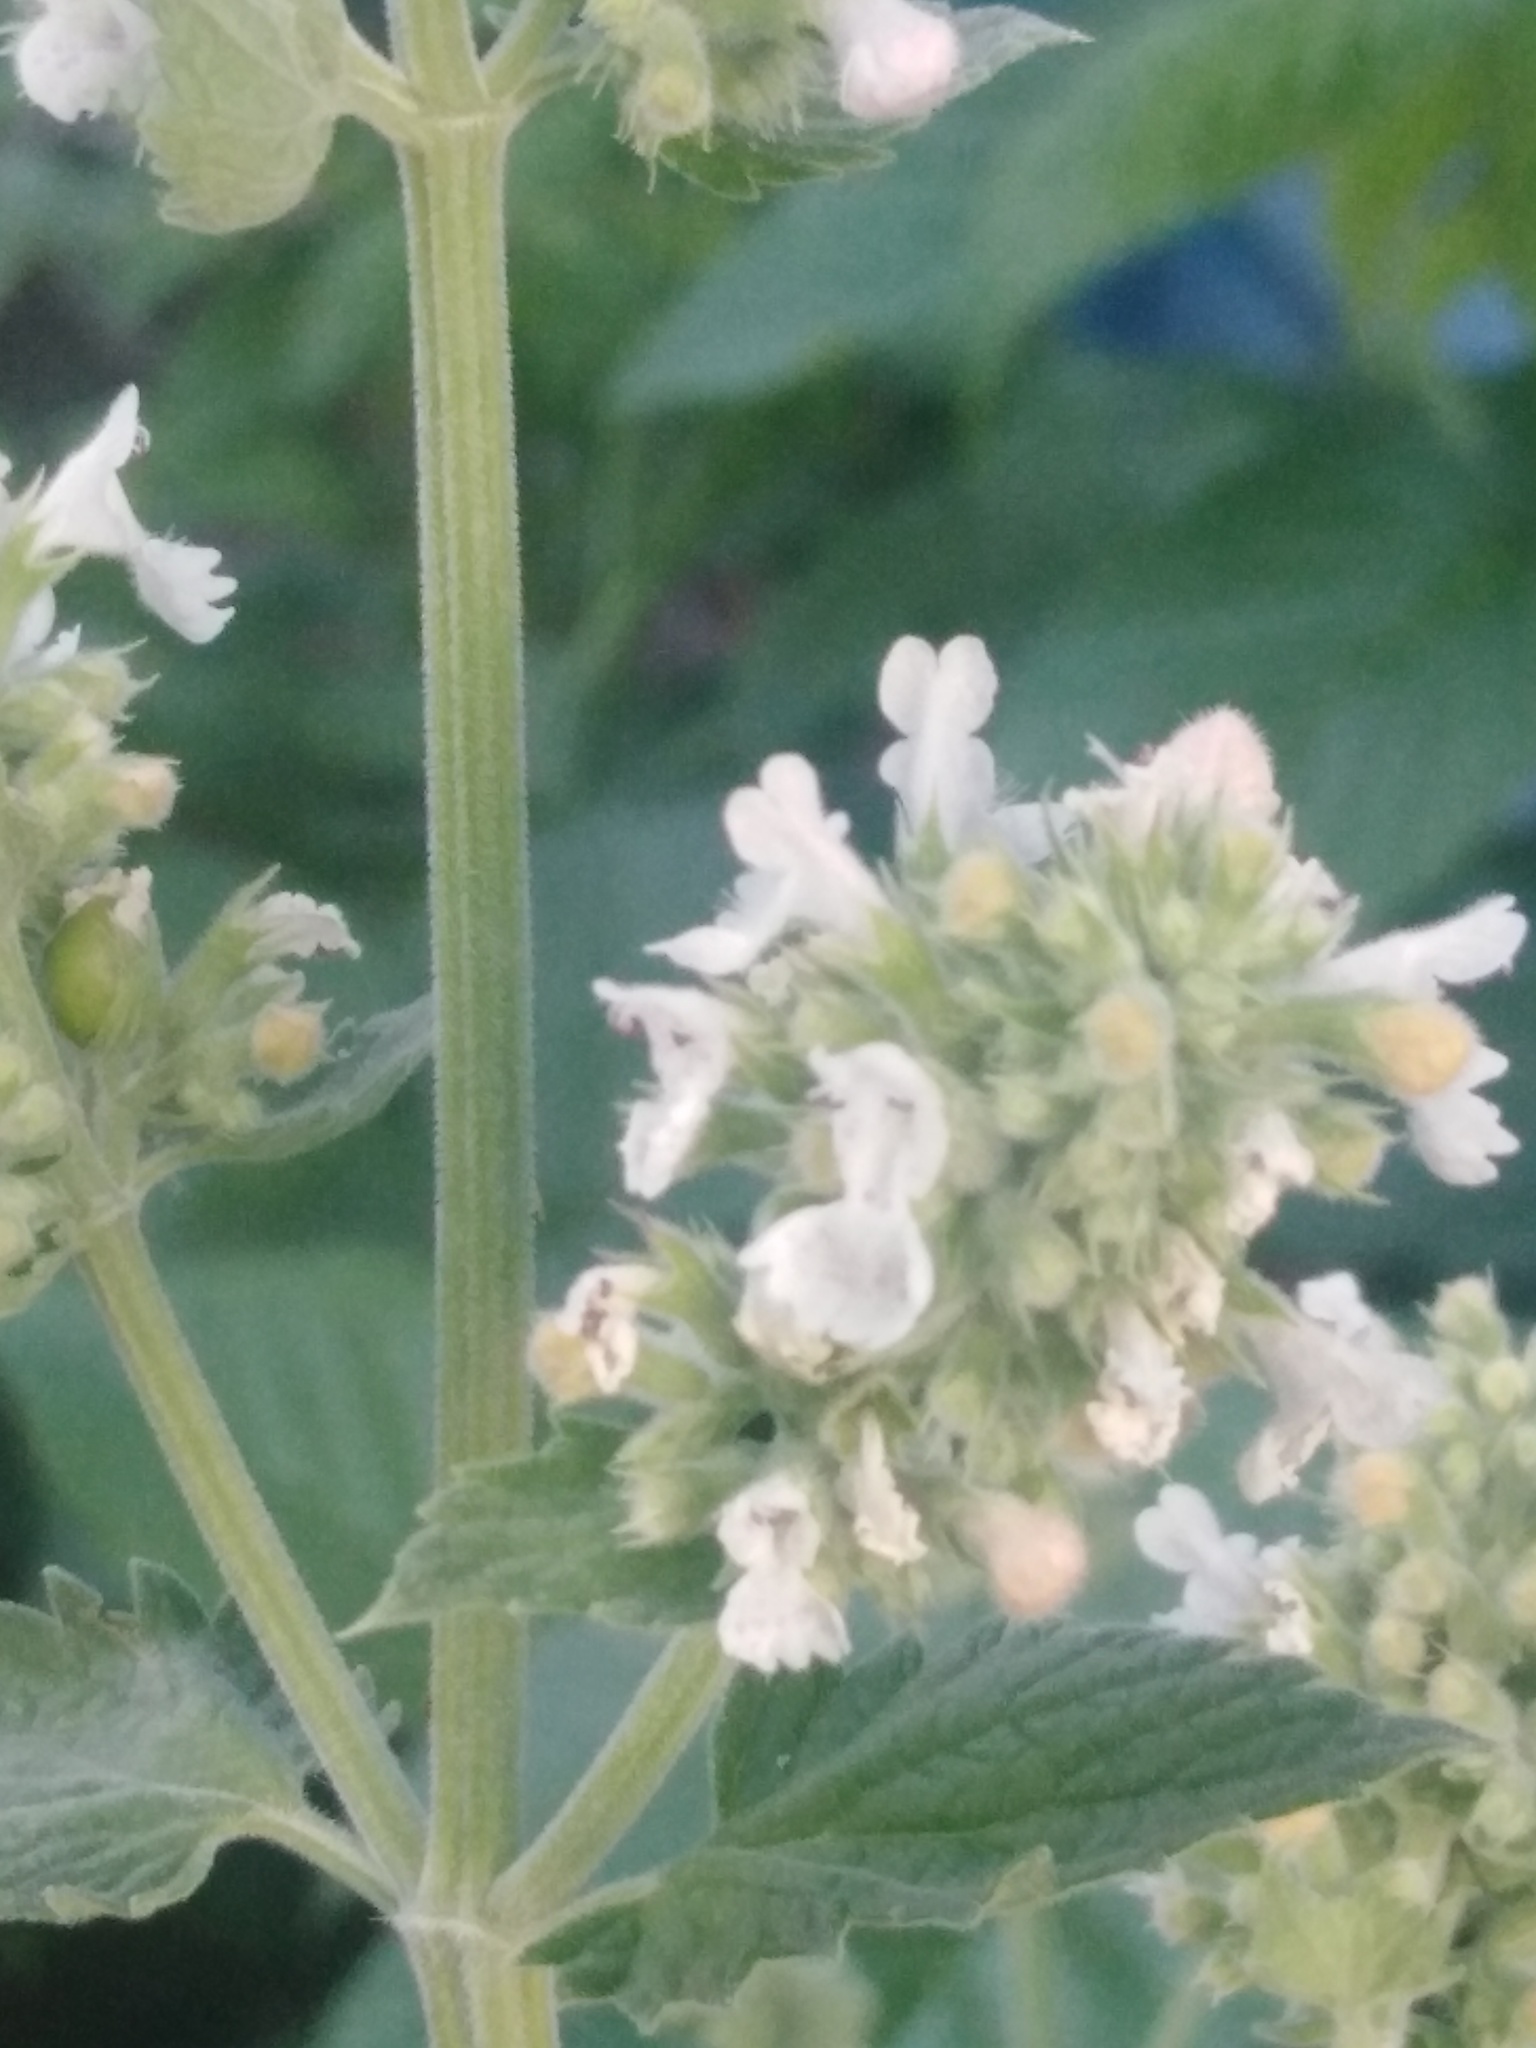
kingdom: Plantae
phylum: Tracheophyta
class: Magnoliopsida
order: Lamiales
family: Lamiaceae
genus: Nepeta
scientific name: Nepeta cataria
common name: Catnip
